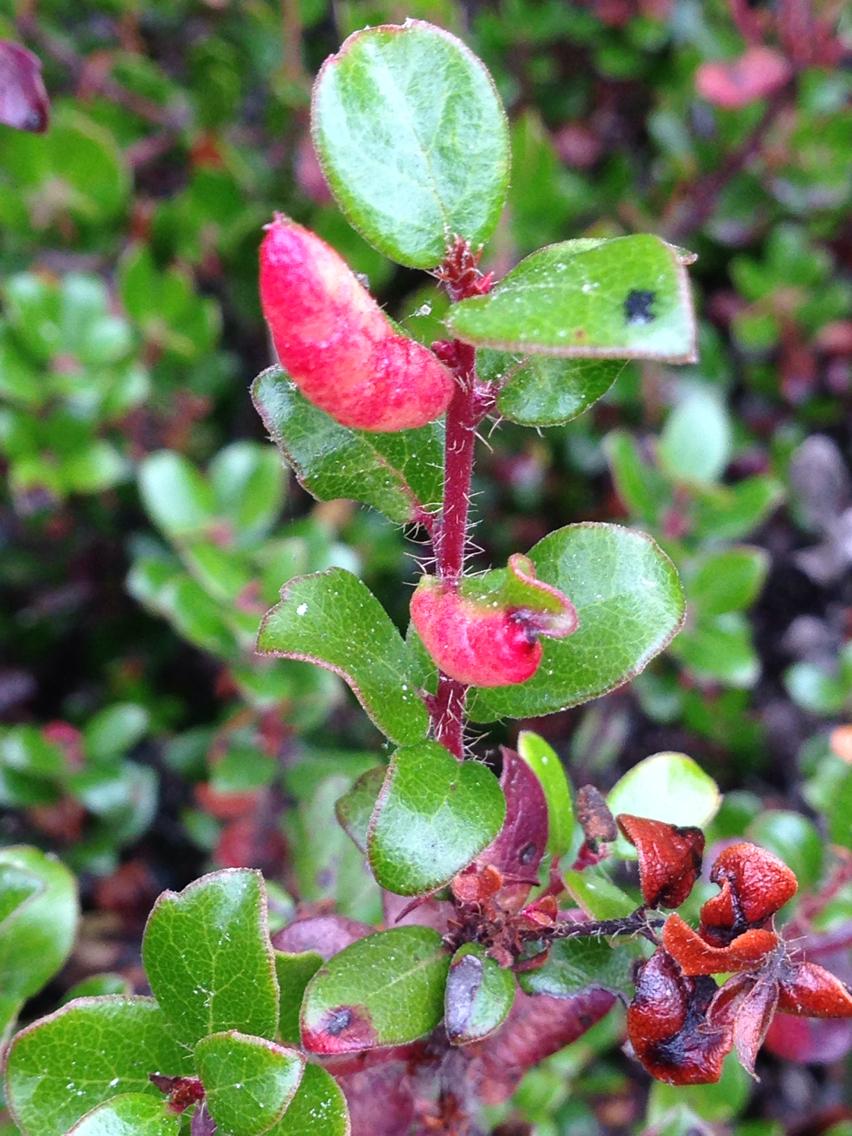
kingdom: Animalia
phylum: Arthropoda
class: Insecta
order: Hemiptera
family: Aphididae
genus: Tamalia
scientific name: Tamalia coweni
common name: Manzanita leafgall aphid
